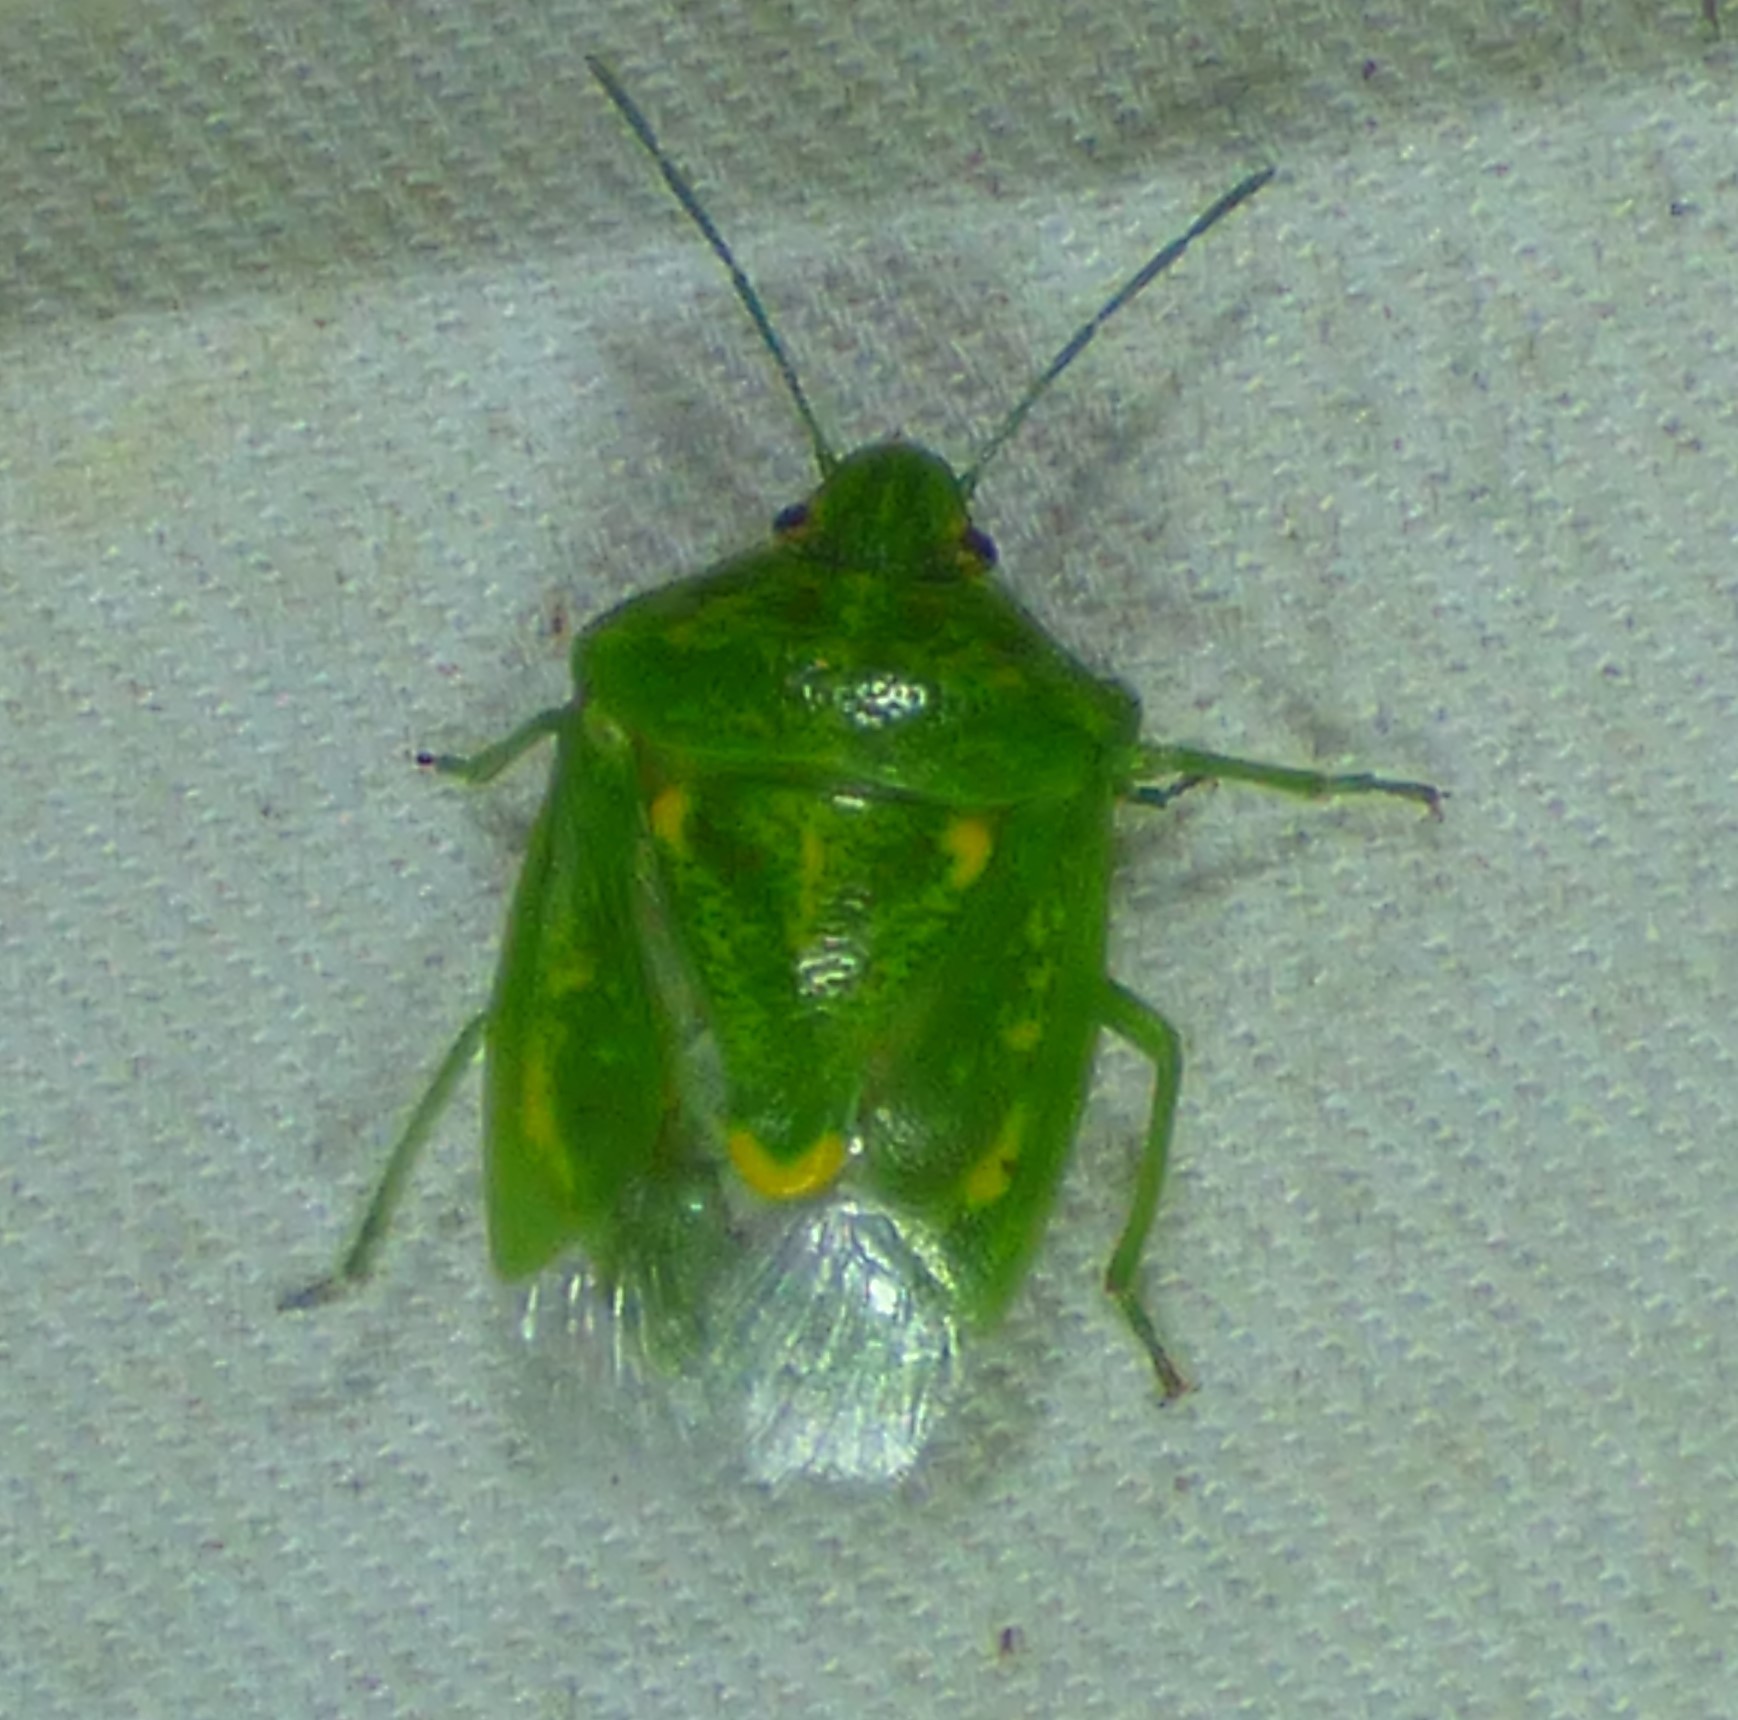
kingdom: Animalia
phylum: Arthropoda
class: Insecta
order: Hemiptera
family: Pentatomidae
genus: Banasa
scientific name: Banasa euchlora
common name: Cedar berry bug
